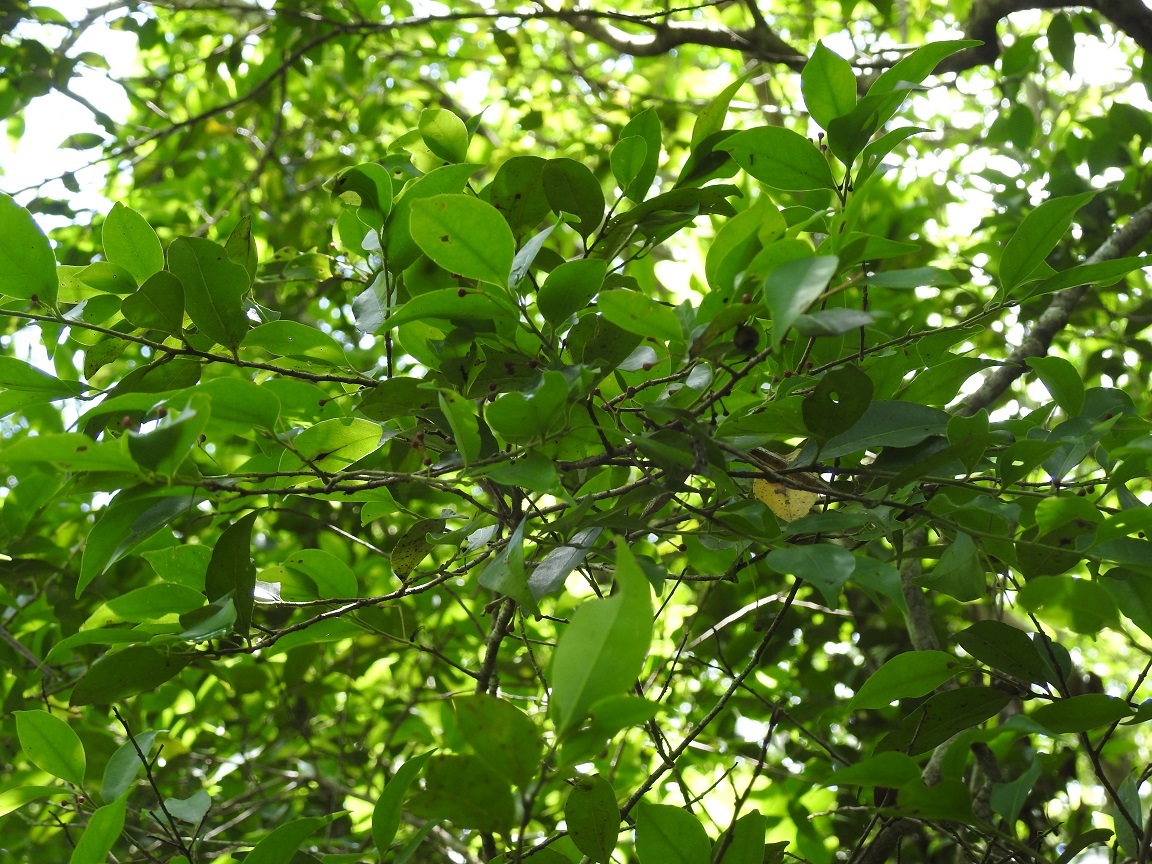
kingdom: Plantae
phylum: Tracheophyta
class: Magnoliopsida
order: Laurales
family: Lauraceae
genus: Licaria
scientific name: Licaria misantlae
